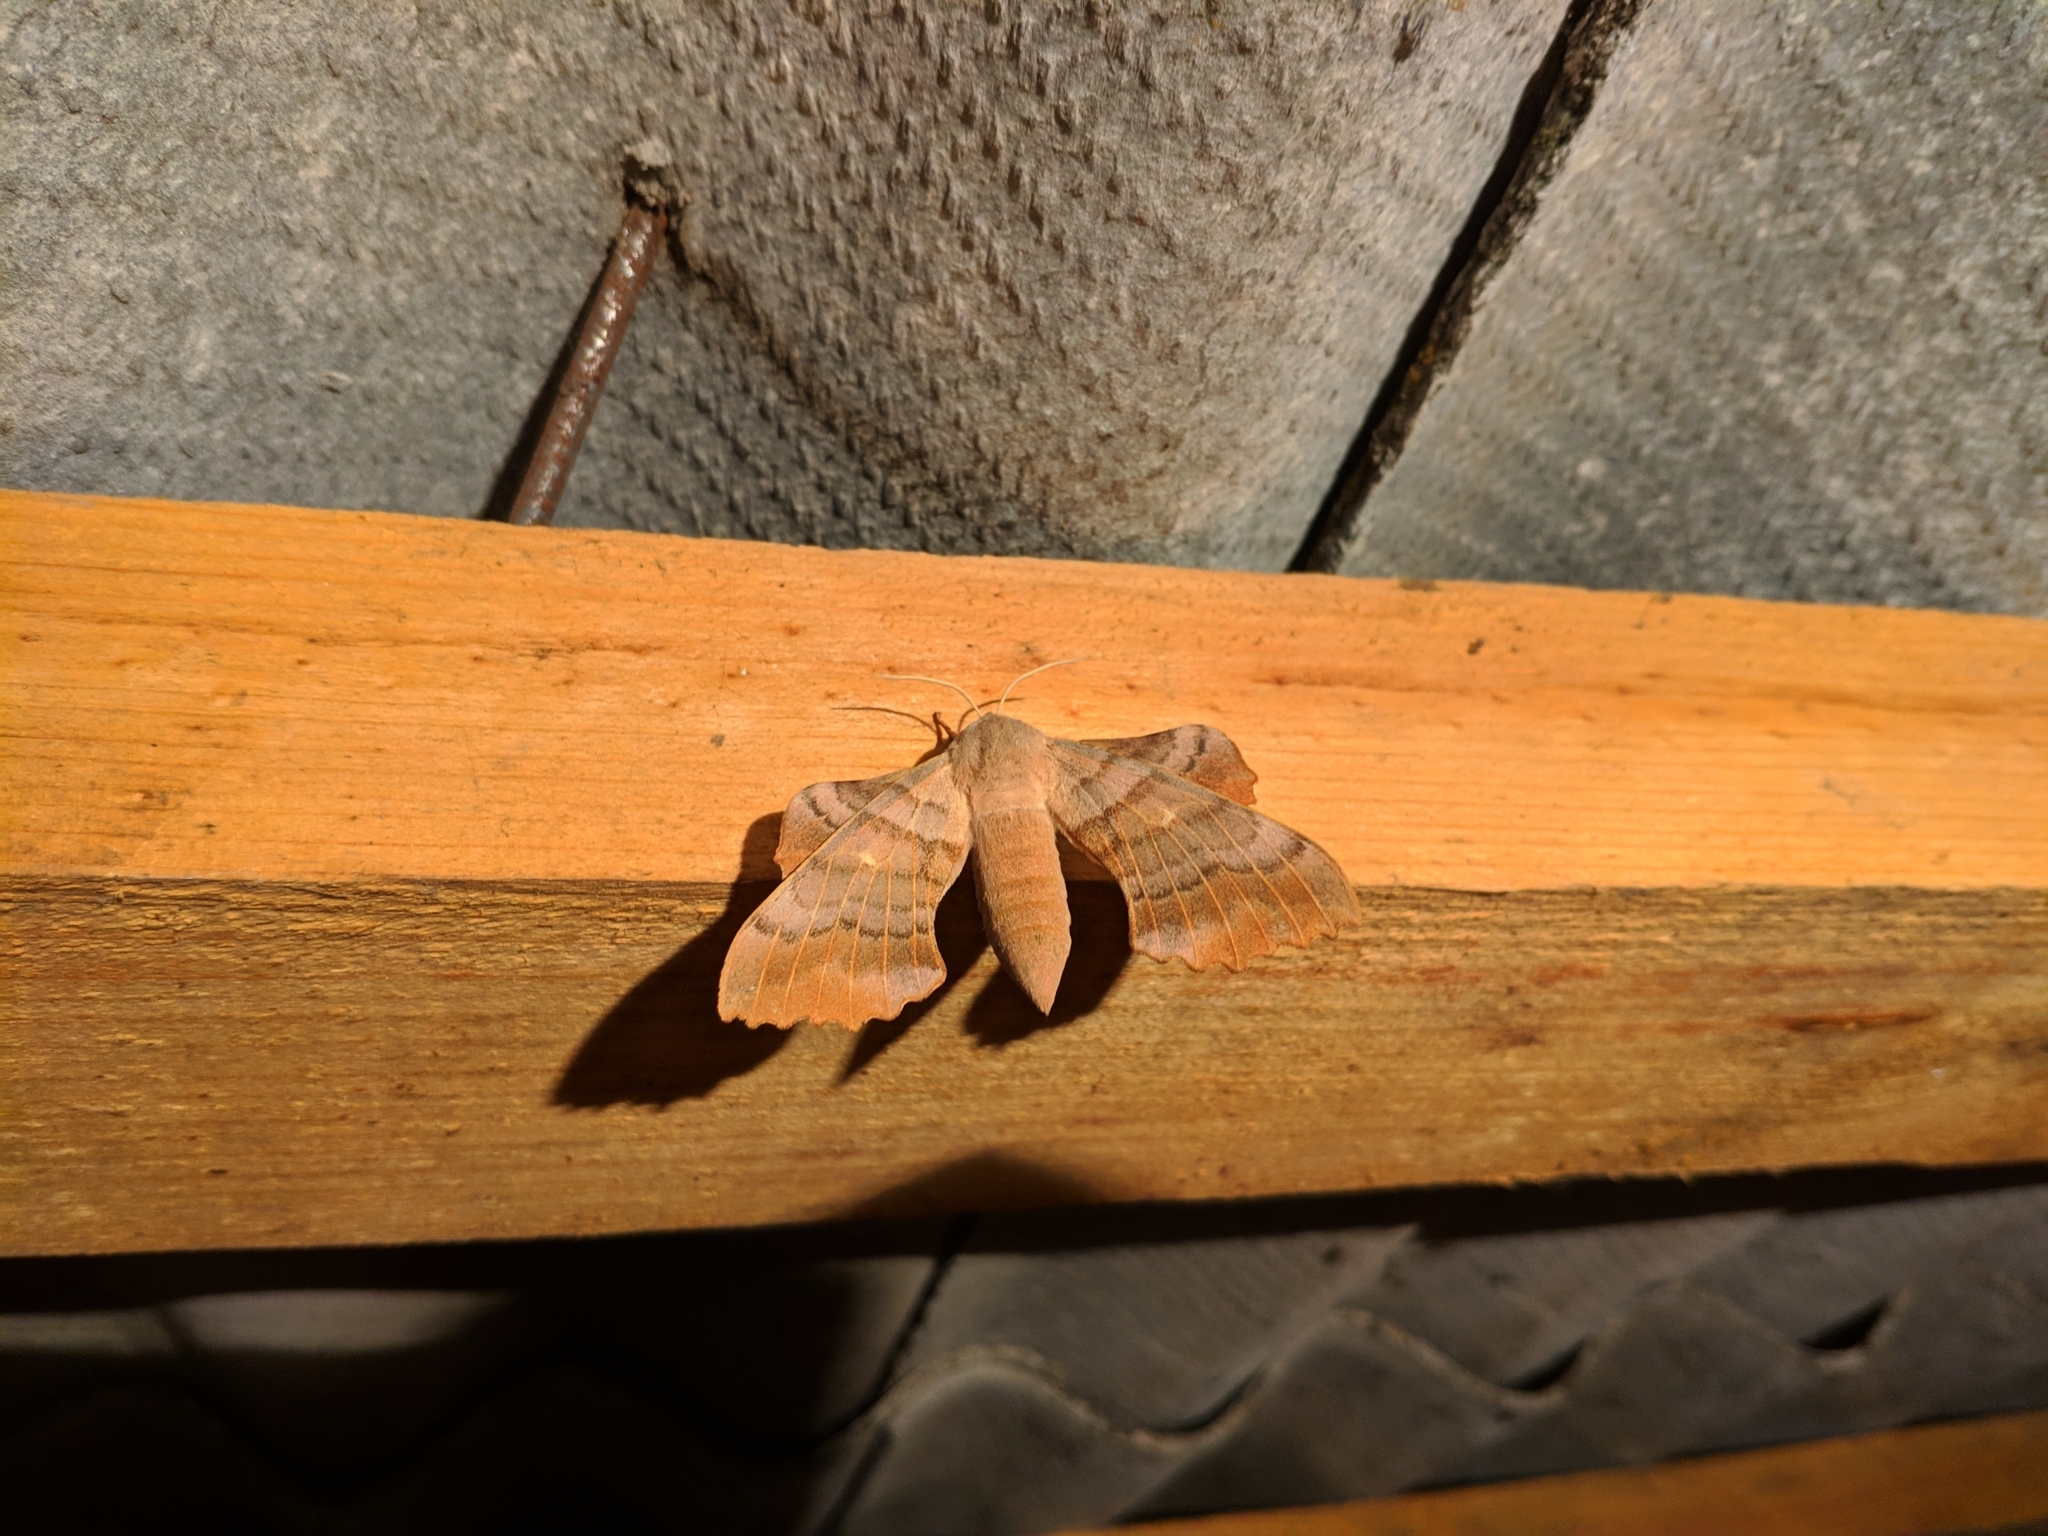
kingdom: Animalia
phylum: Arthropoda
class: Insecta
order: Lepidoptera
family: Sphingidae
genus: Laothoe
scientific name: Laothoe populi
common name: Poplar hawk-moth
